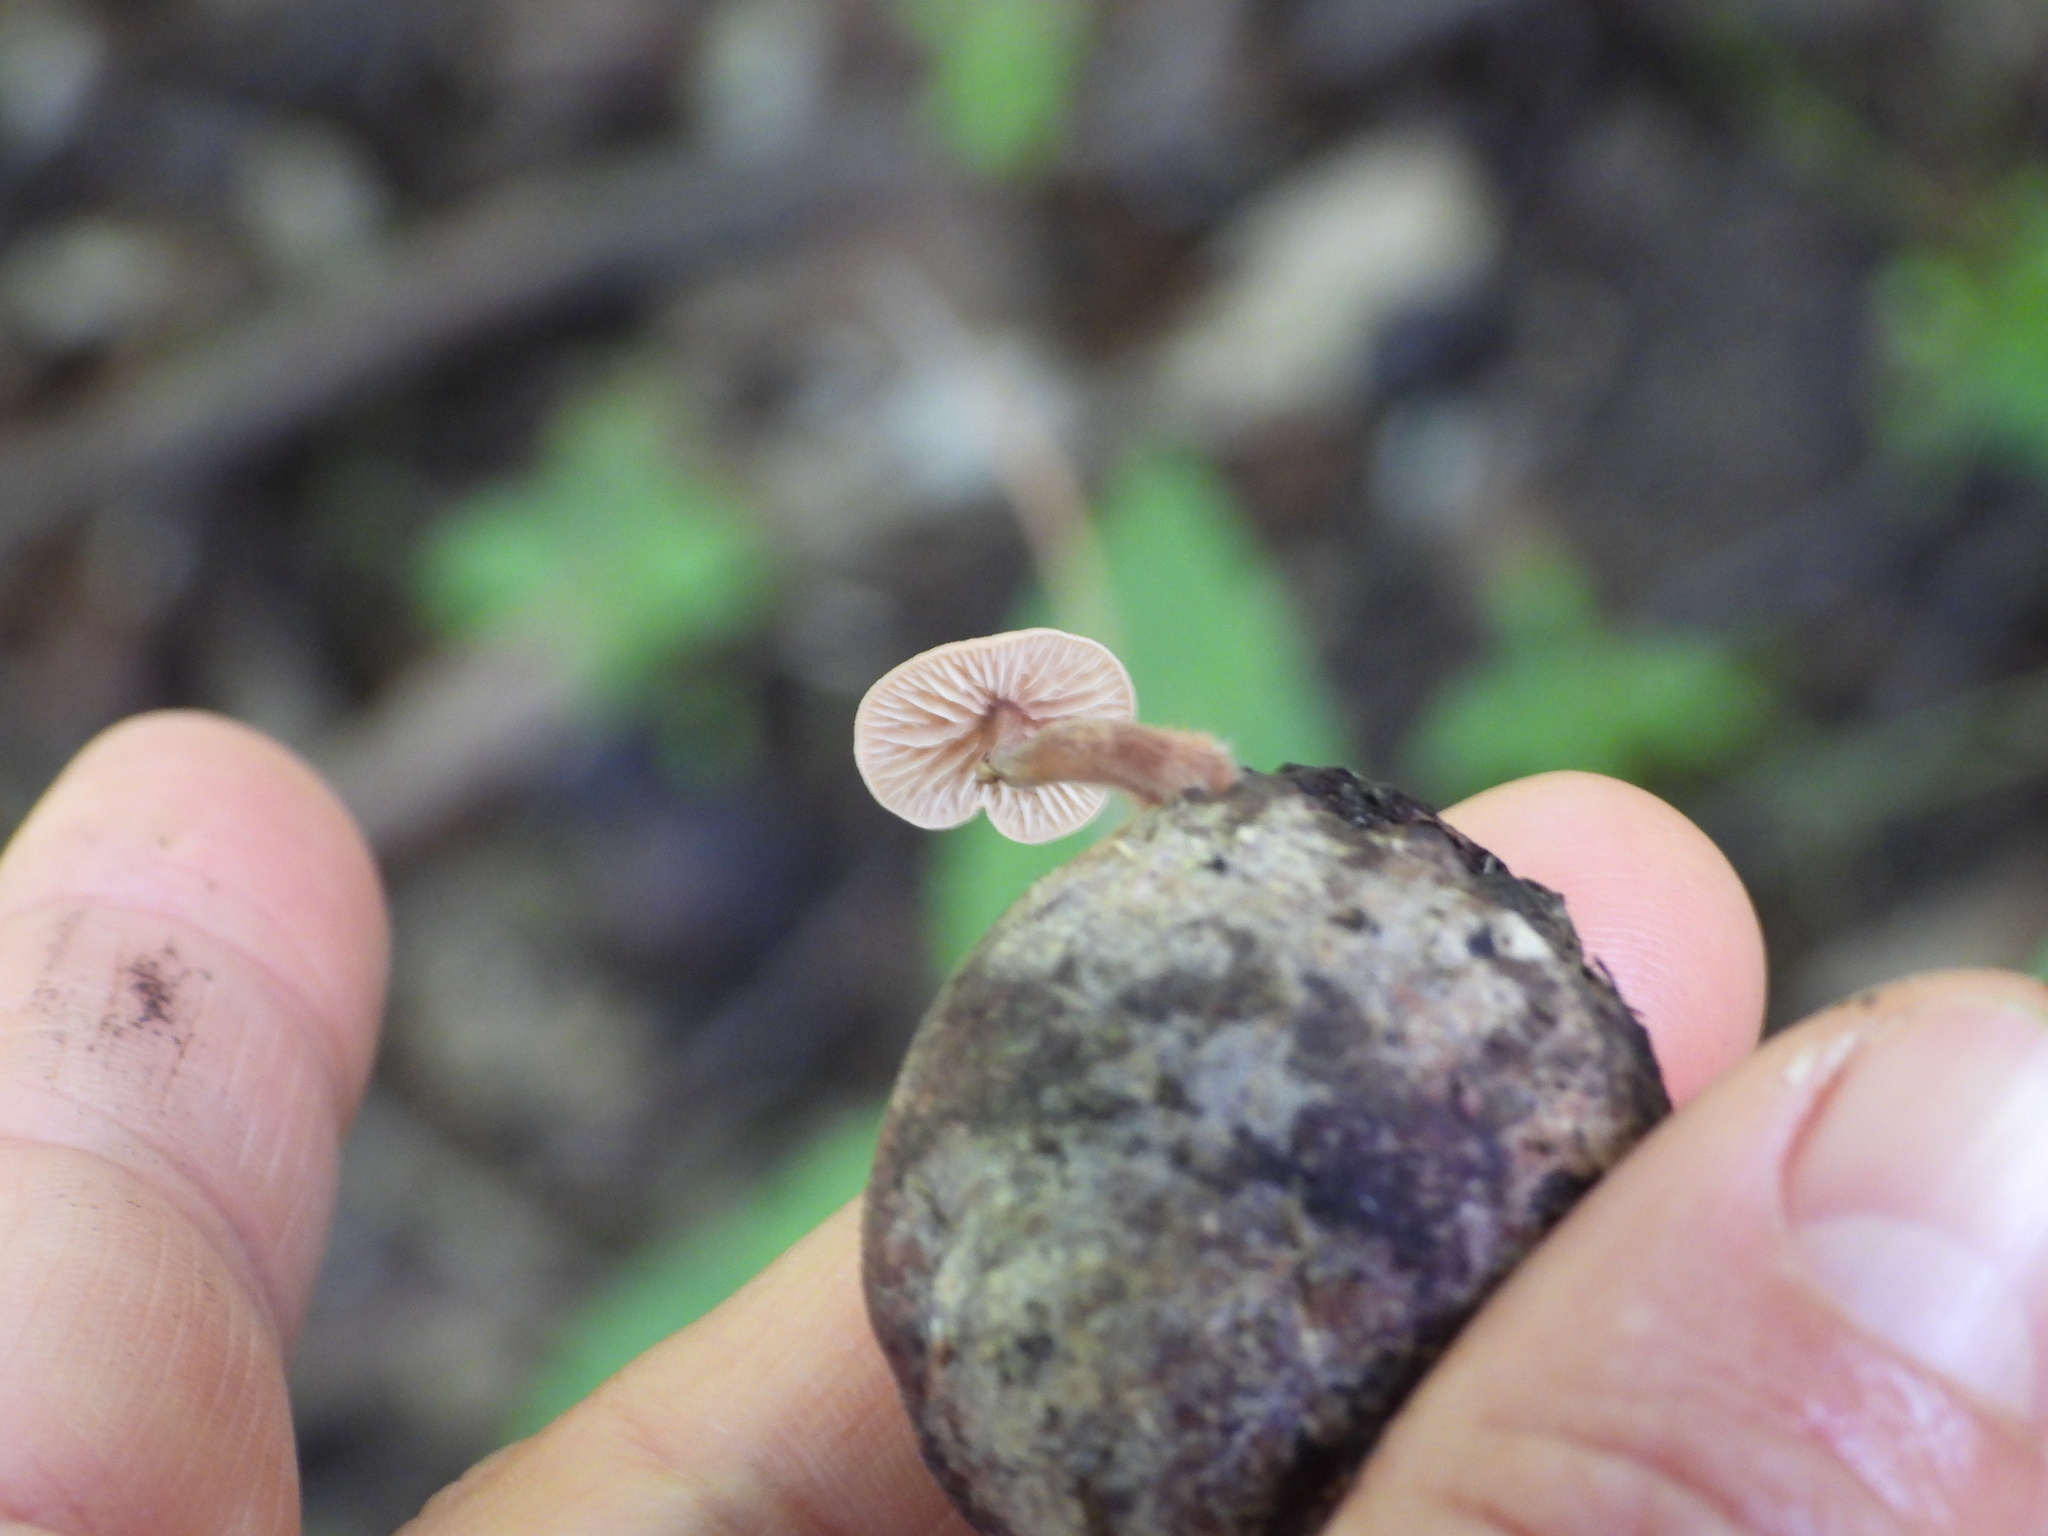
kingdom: Fungi
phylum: Basidiomycota
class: Agaricomycetes
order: Agaricales
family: Omphalotaceae
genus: Gymnopus
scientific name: Gymnopus semihirtipes
